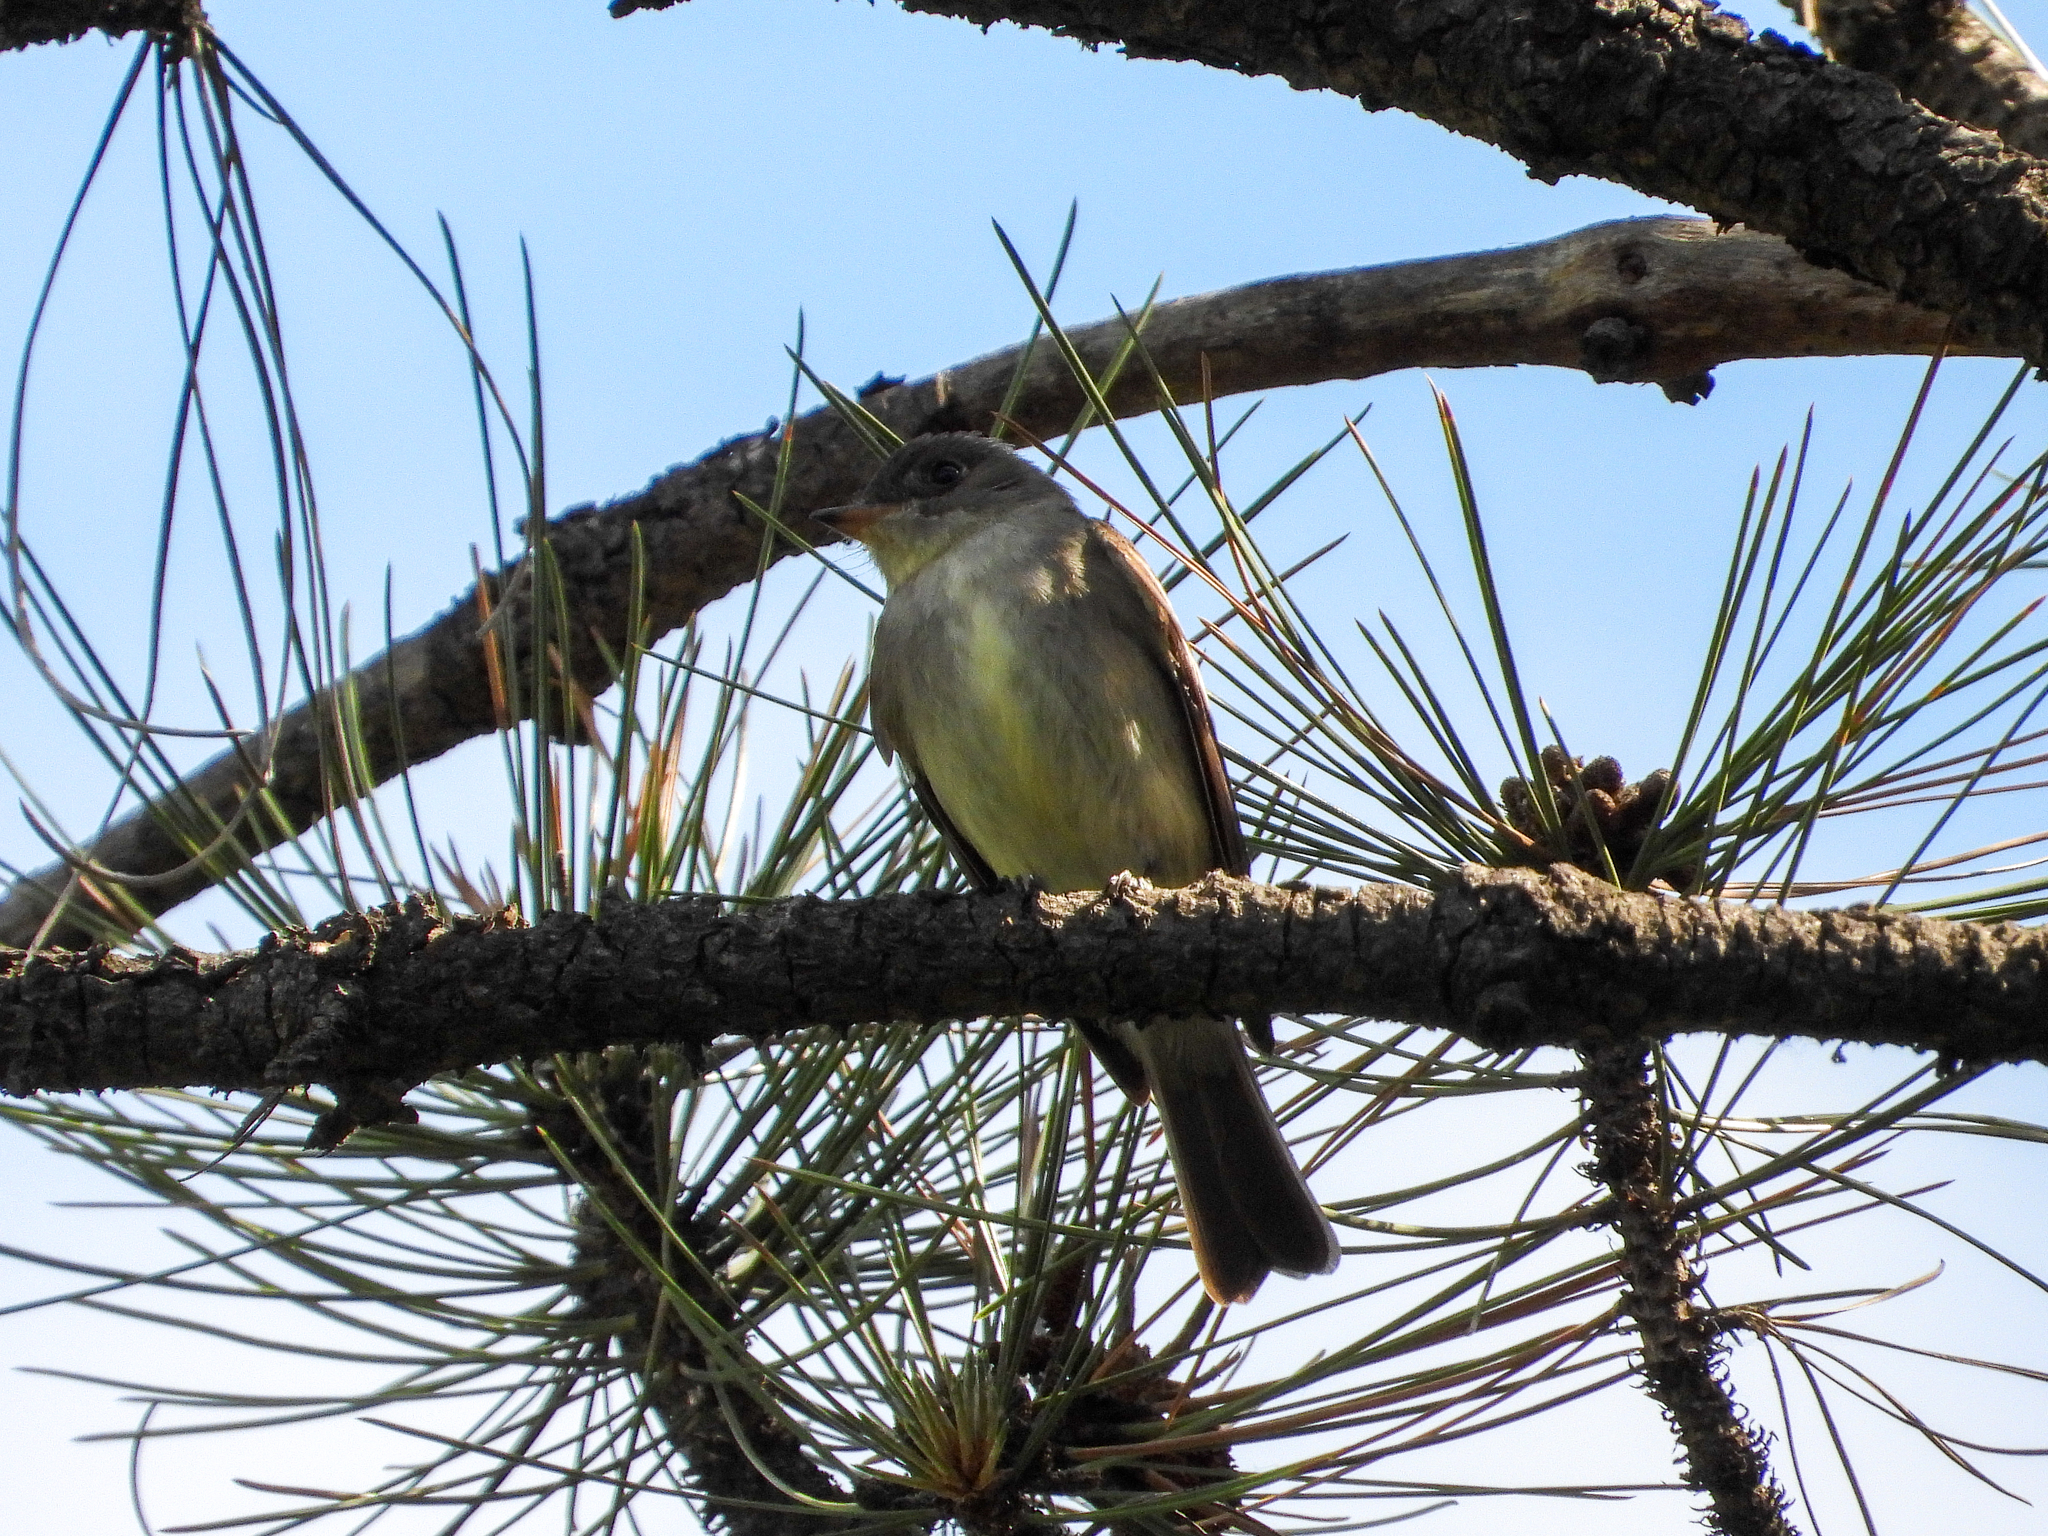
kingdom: Animalia
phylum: Chordata
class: Aves
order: Passeriformes
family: Tyrannidae
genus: Contopus
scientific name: Contopus virens
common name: Eastern wood-pewee
